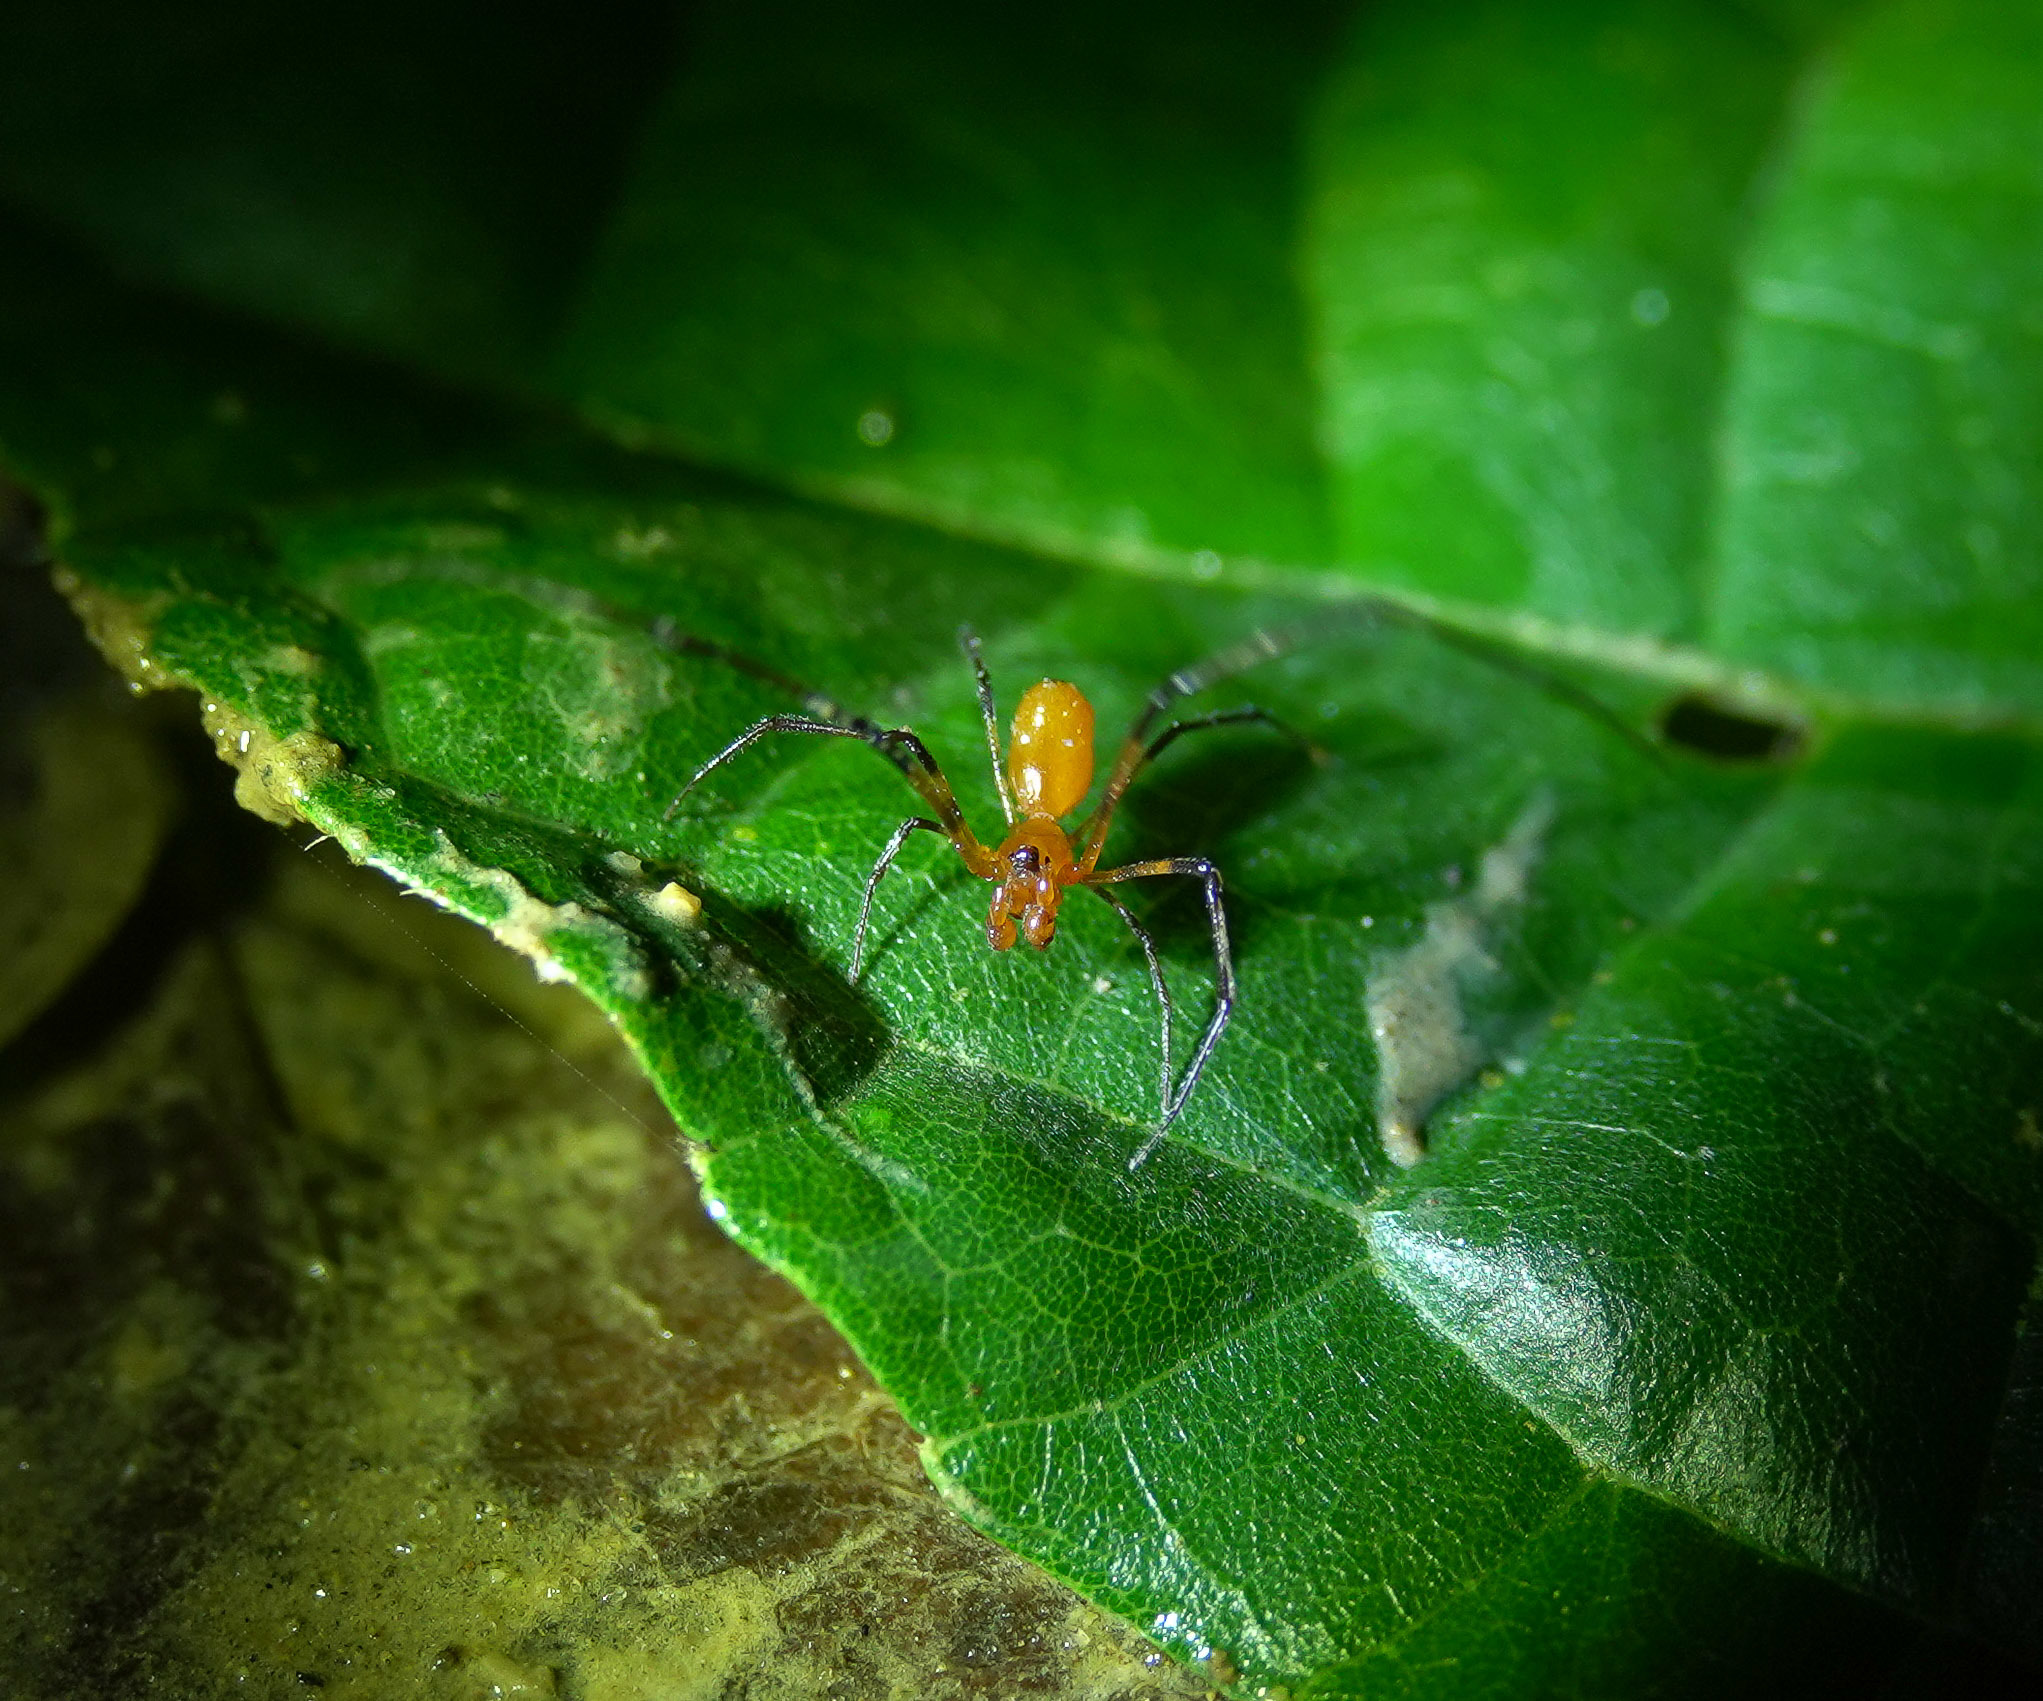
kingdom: Animalia
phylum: Arthropoda
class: Arachnida
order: Araneae
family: Theridiidae
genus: Argyrodes
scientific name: Argyrodes miniaceus
